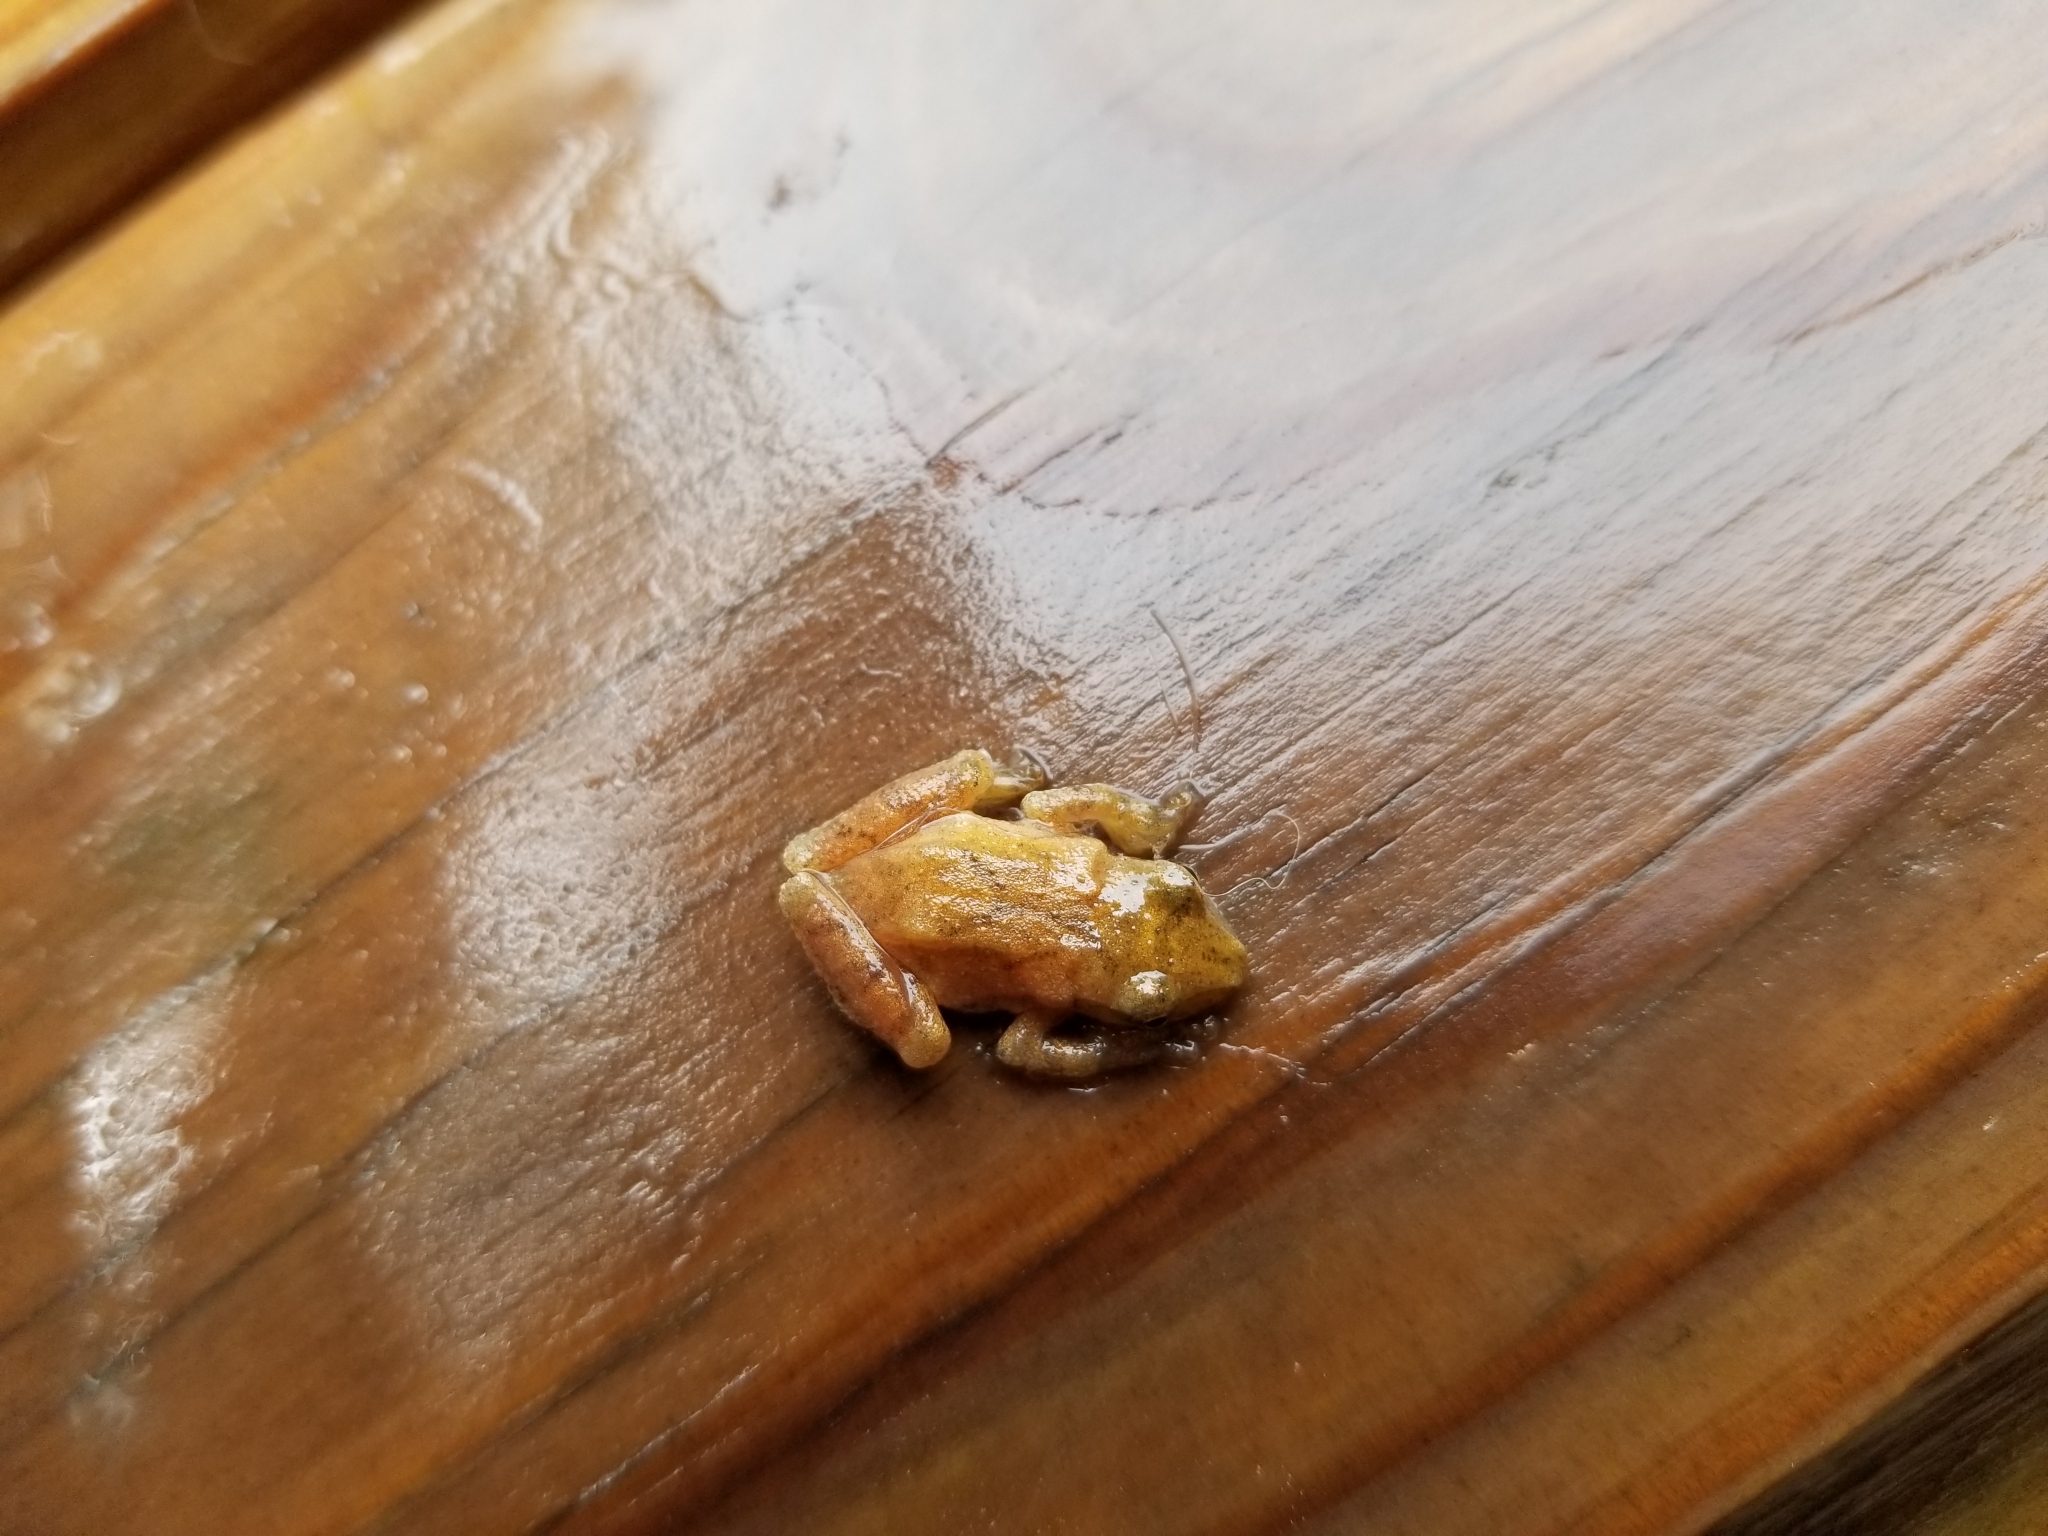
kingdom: Animalia
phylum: Chordata
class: Amphibia
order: Anura
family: Hylidae
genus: Pseudacris
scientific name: Pseudacris crucifer
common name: Spring peeper
